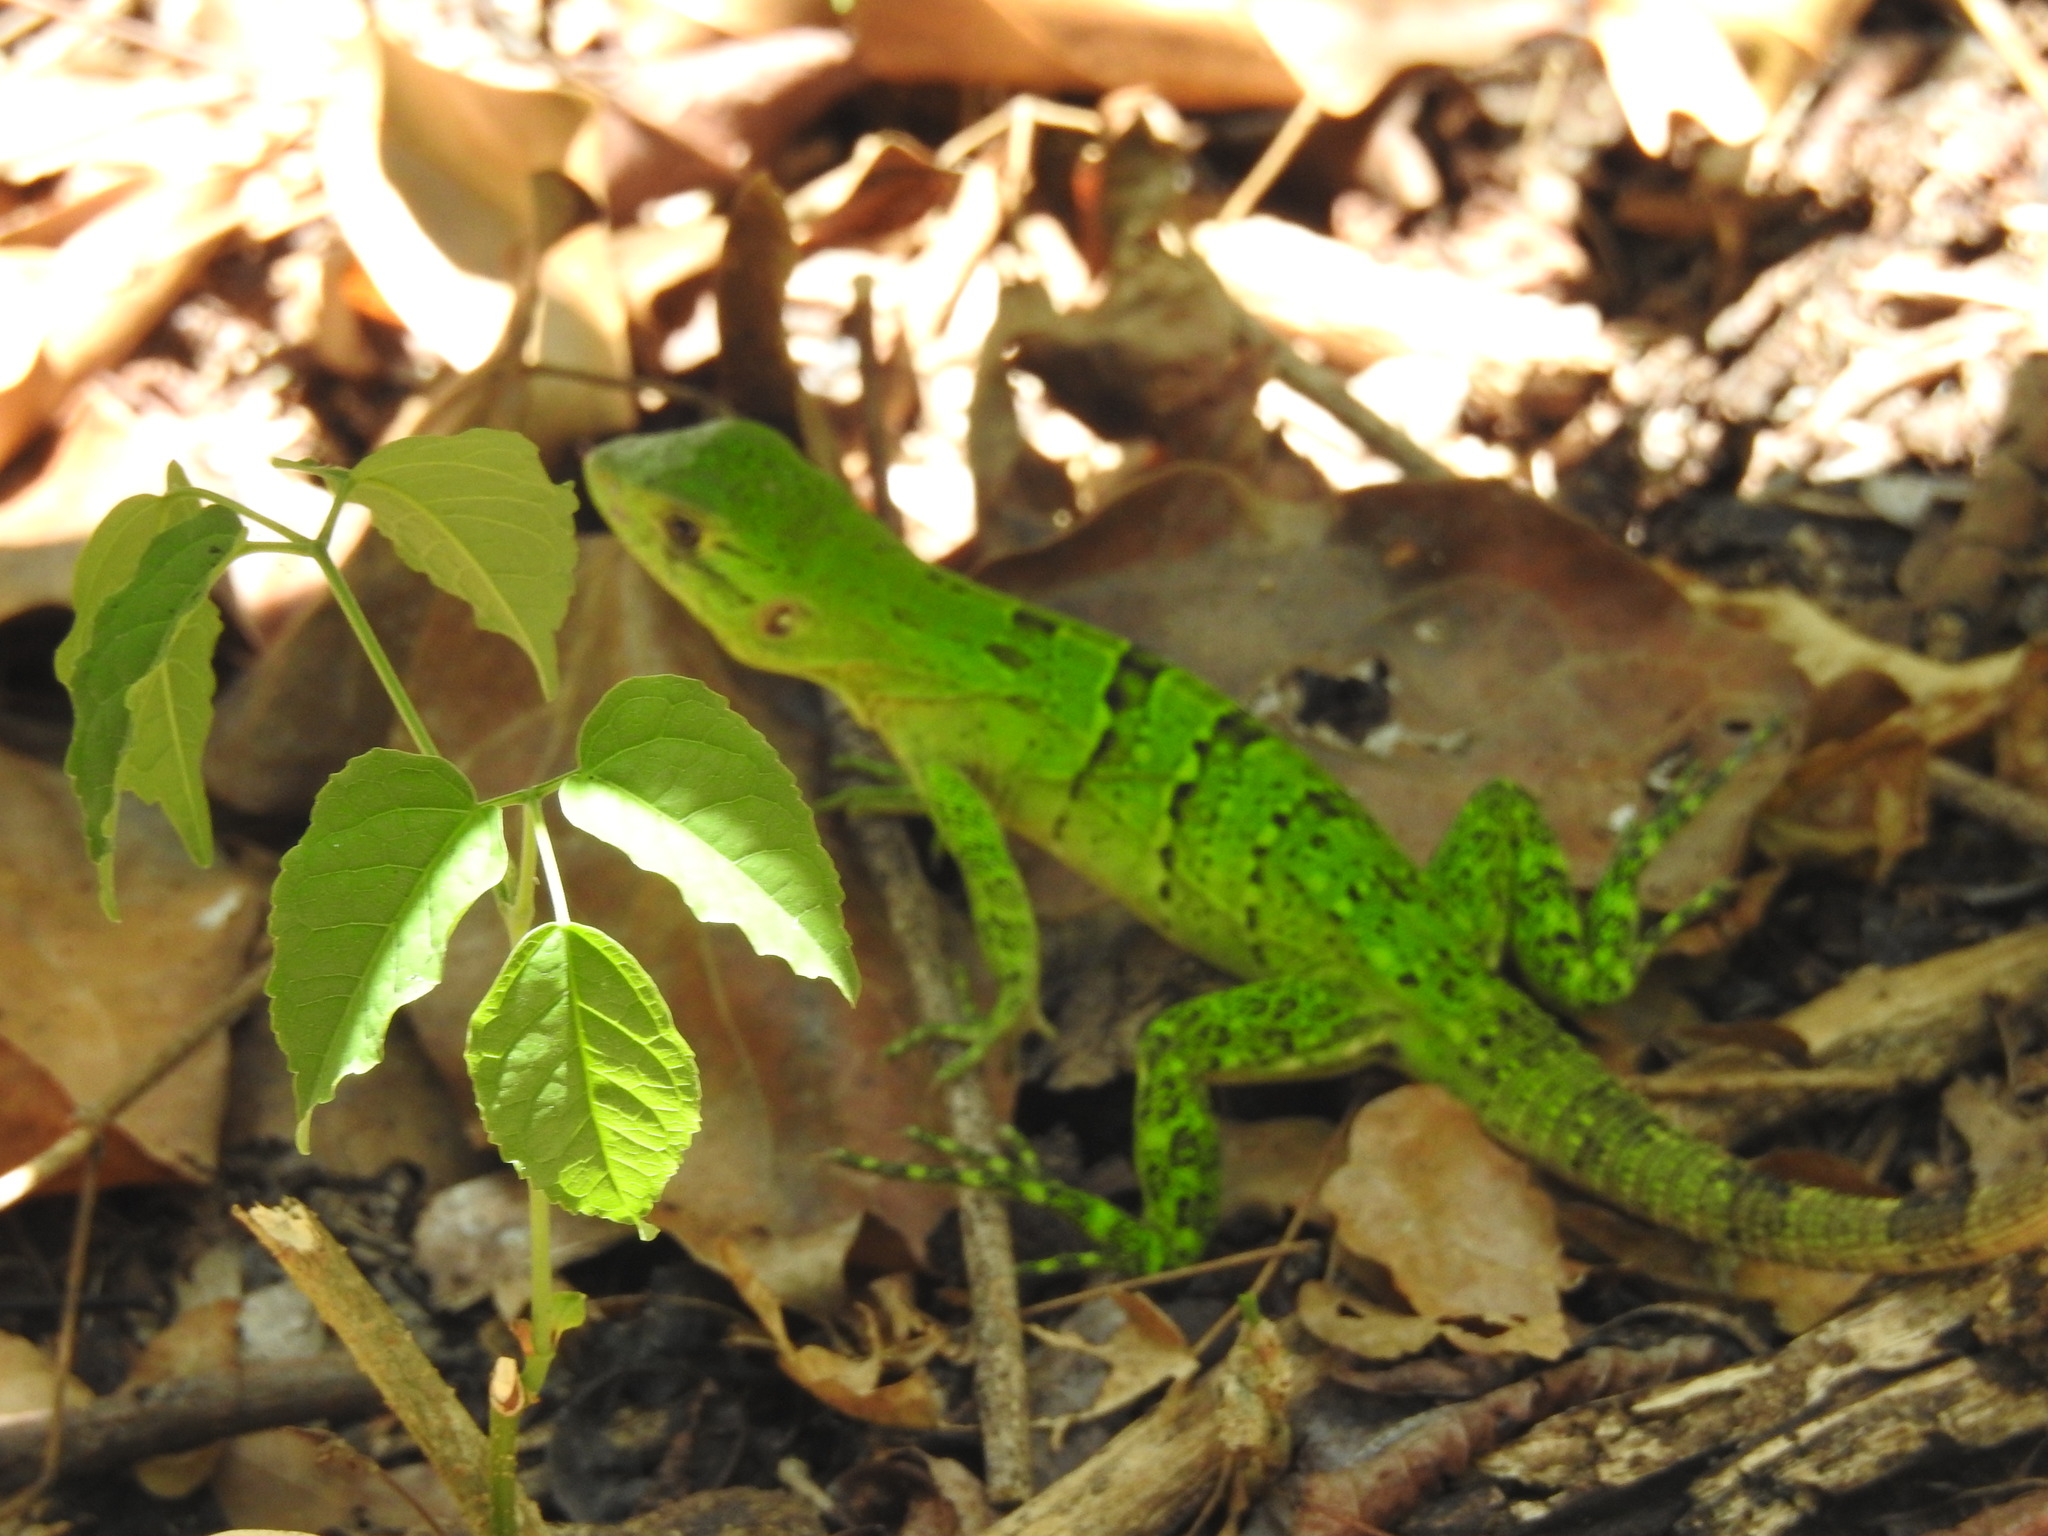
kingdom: Animalia
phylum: Chordata
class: Squamata
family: Iguanidae
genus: Ctenosaura
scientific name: Ctenosaura similis
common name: Black spiny-tailed iguana
